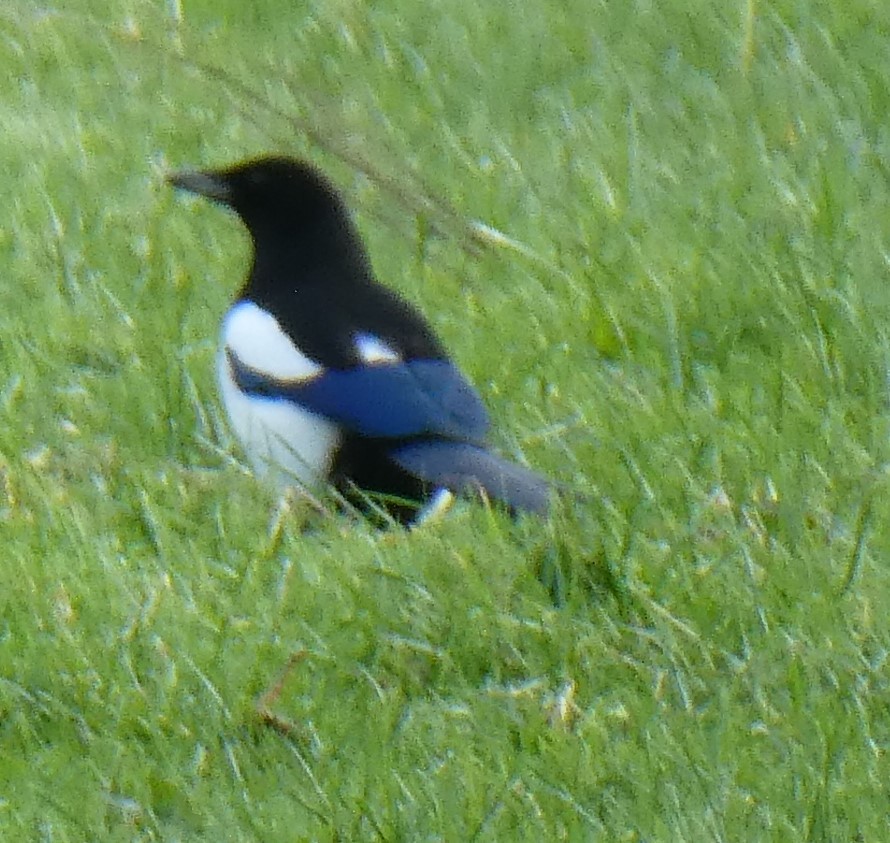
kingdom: Animalia
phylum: Chordata
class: Aves
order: Passeriformes
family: Corvidae
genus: Pica
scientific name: Pica pica
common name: Eurasian magpie
